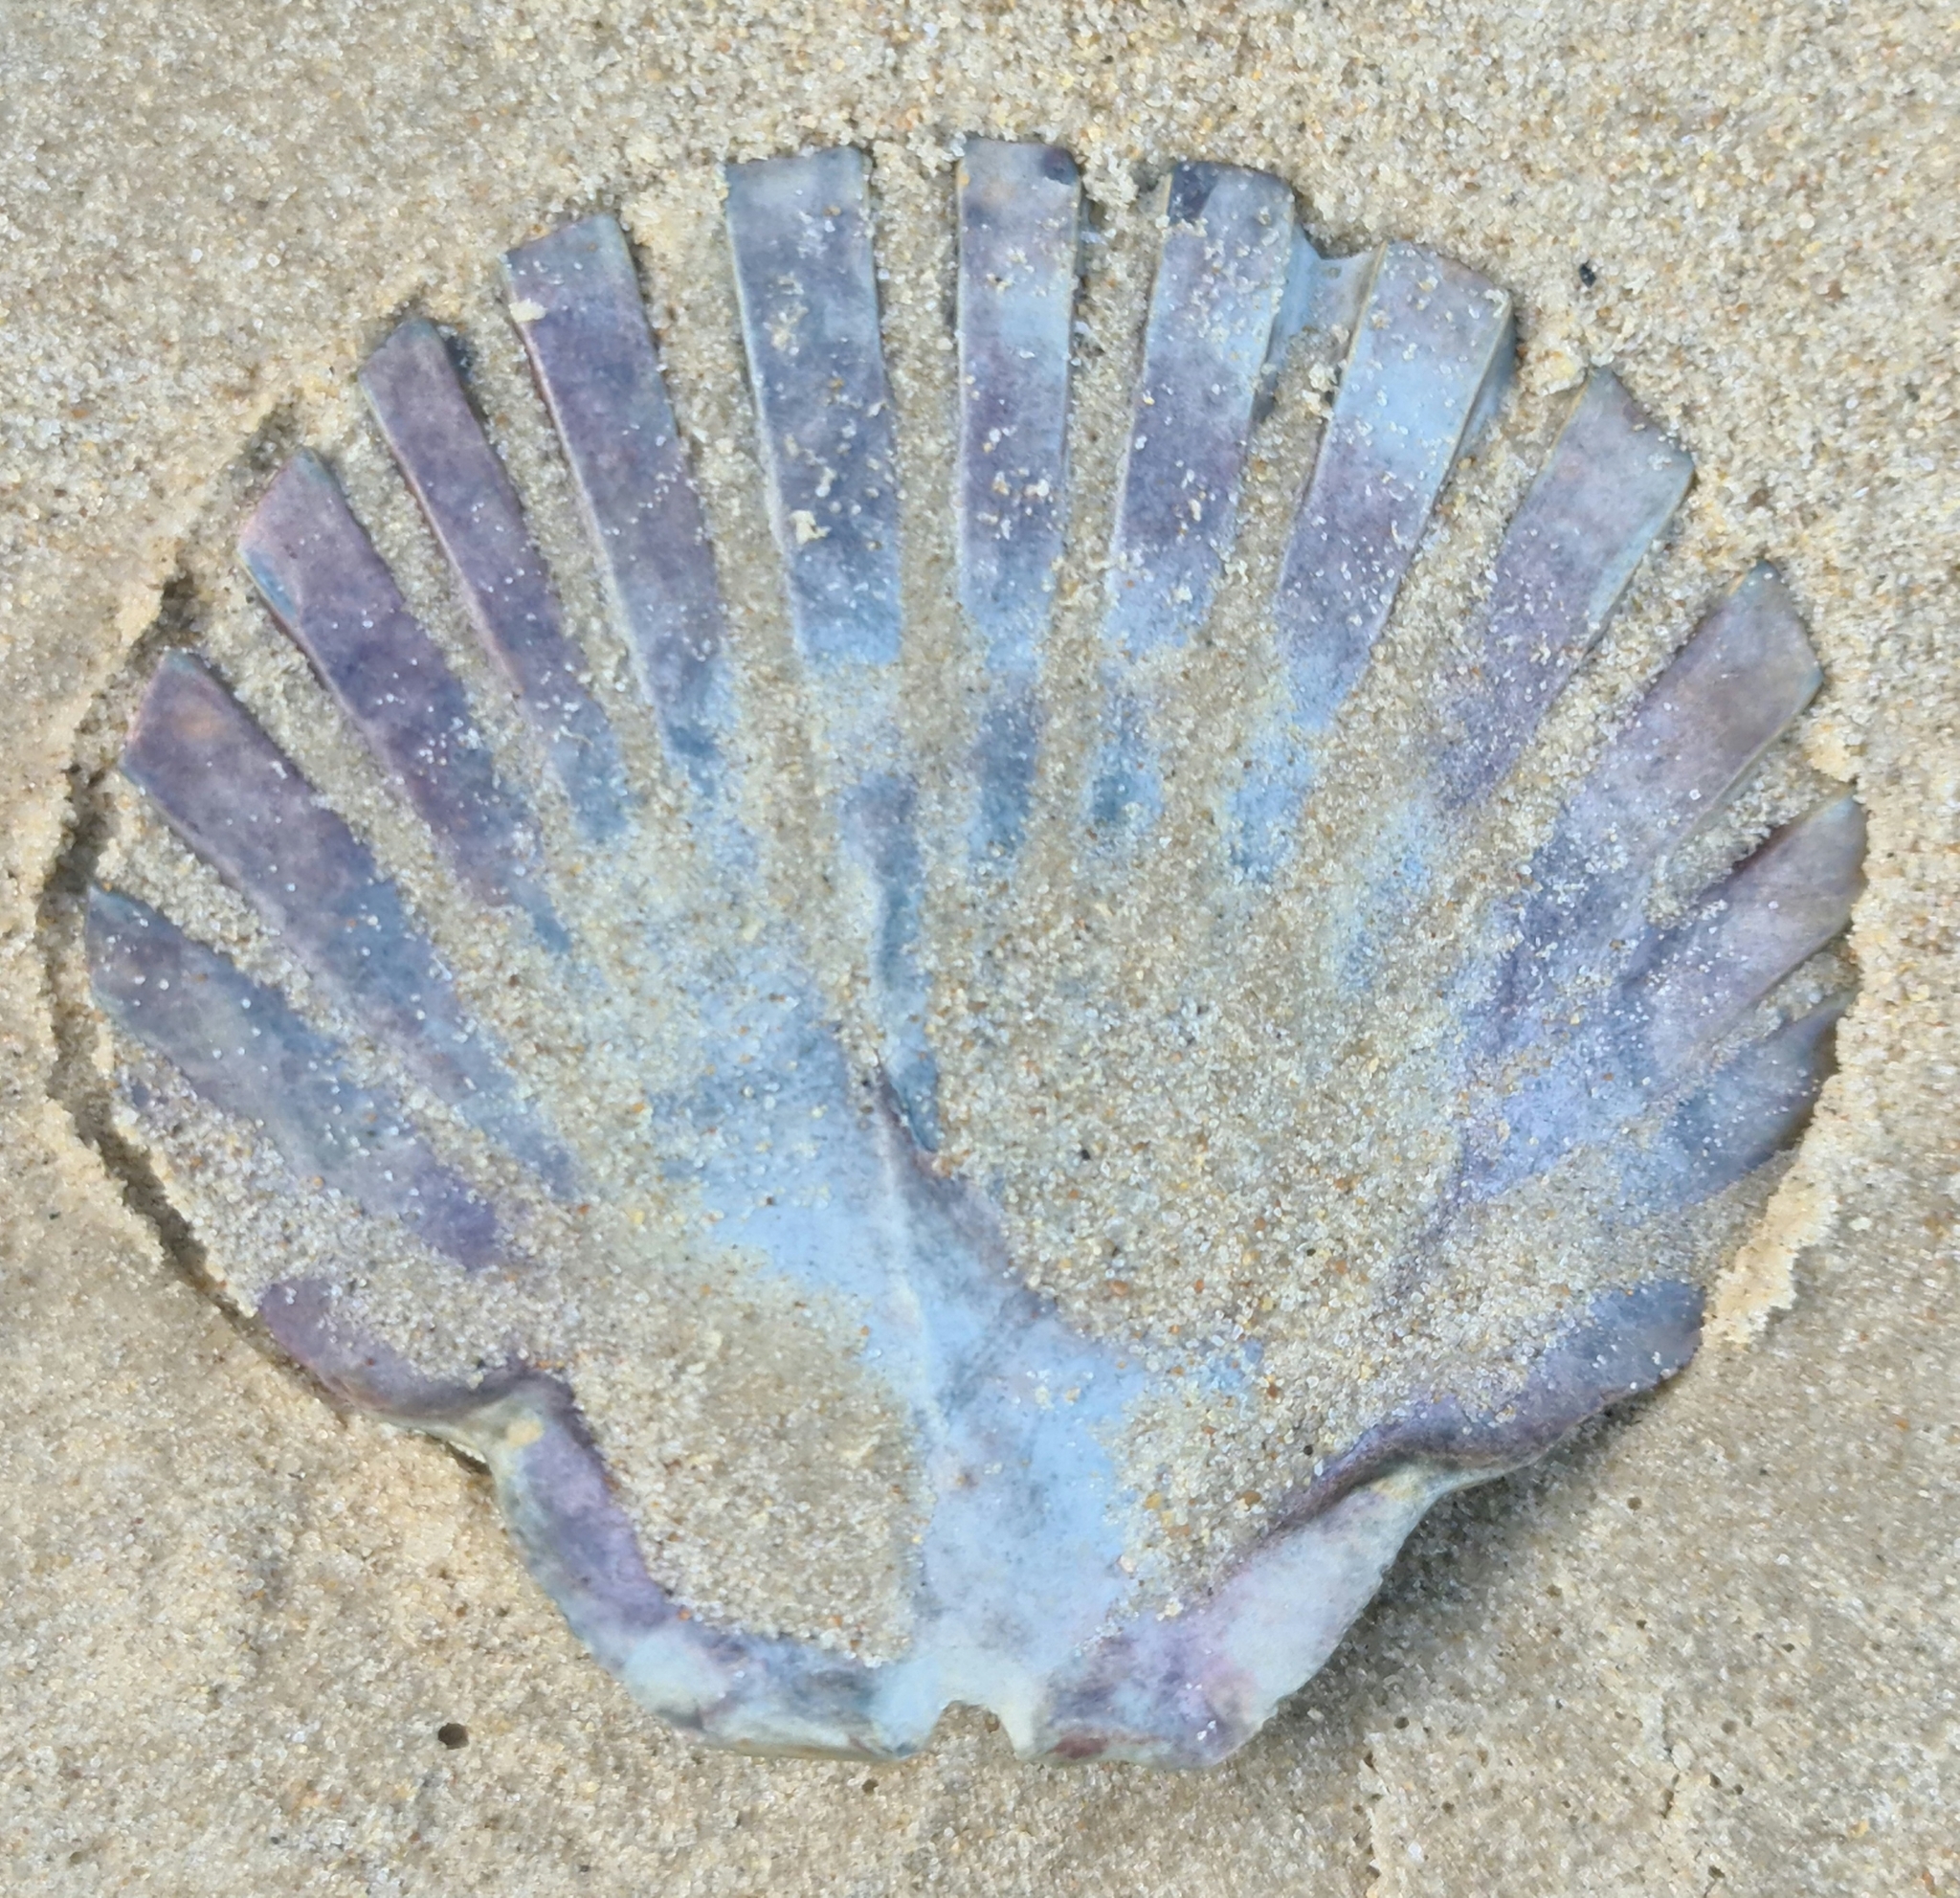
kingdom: Animalia
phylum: Mollusca
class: Bivalvia
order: Pectinida
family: Pectinidae
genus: Pecten
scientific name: Pecten fumatus
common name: Australian scallop
